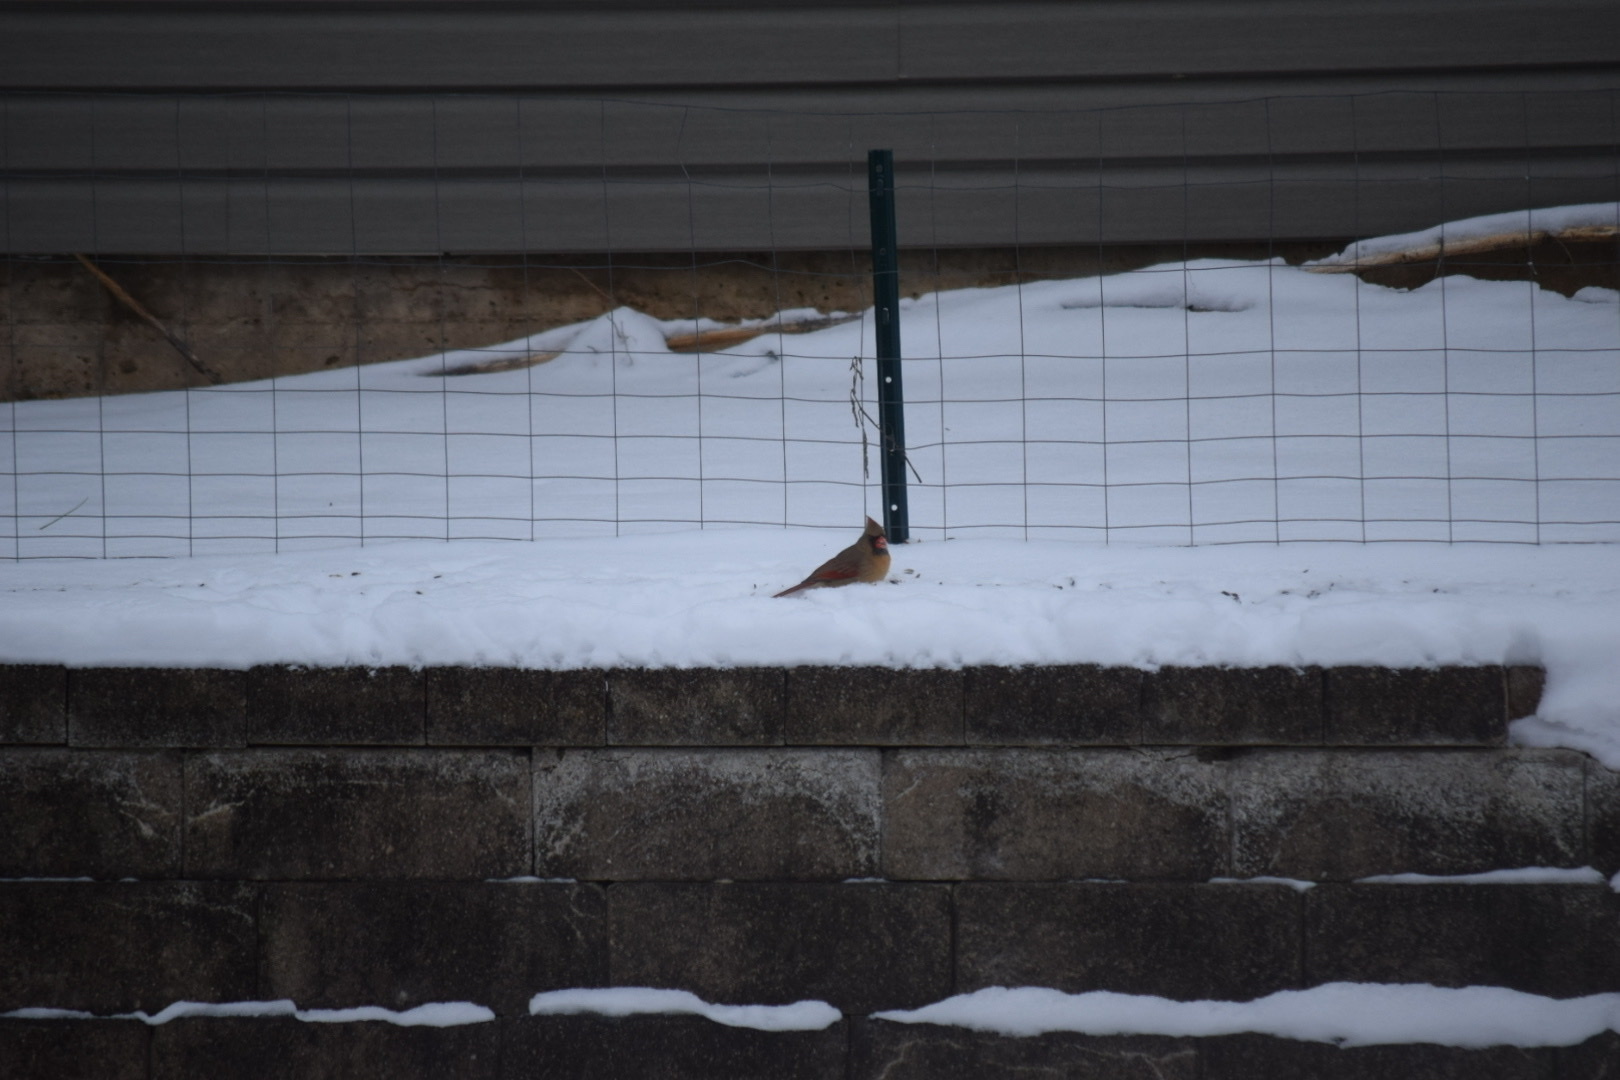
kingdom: Animalia
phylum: Chordata
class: Aves
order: Passeriformes
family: Cardinalidae
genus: Cardinalis
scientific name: Cardinalis cardinalis
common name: Northern cardinal
